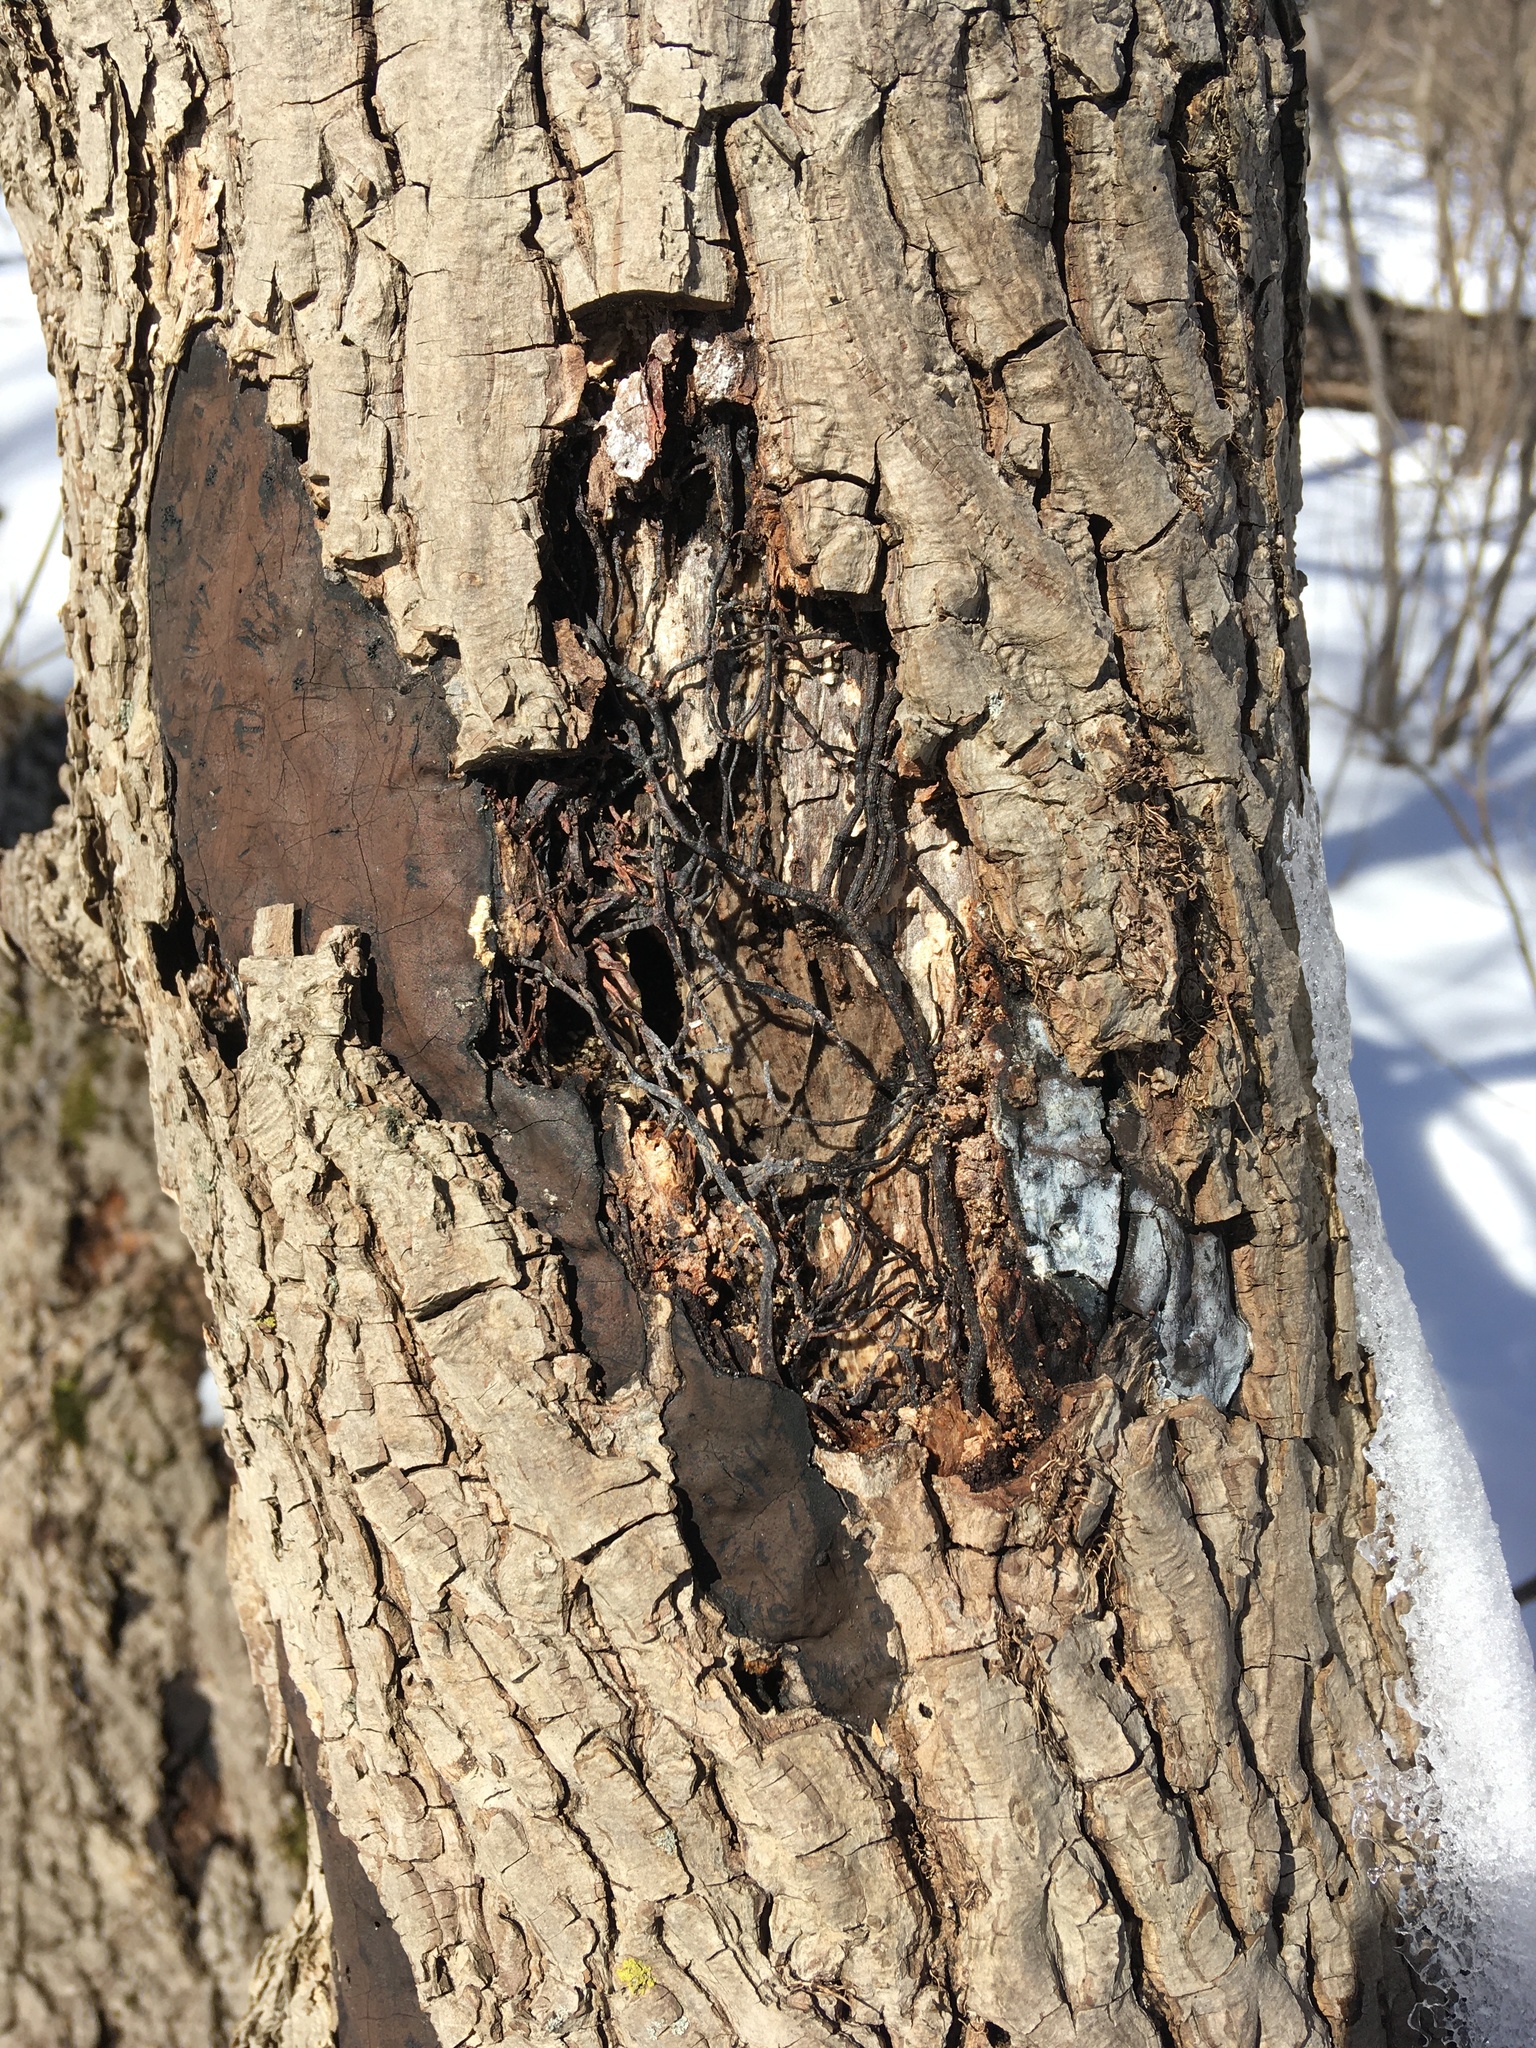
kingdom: Fungi
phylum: Basidiomycota
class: Agaricomycetes
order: Agaricales
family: Physalacriaceae
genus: Armillaria
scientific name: Armillaria mellea
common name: Honey fungus
